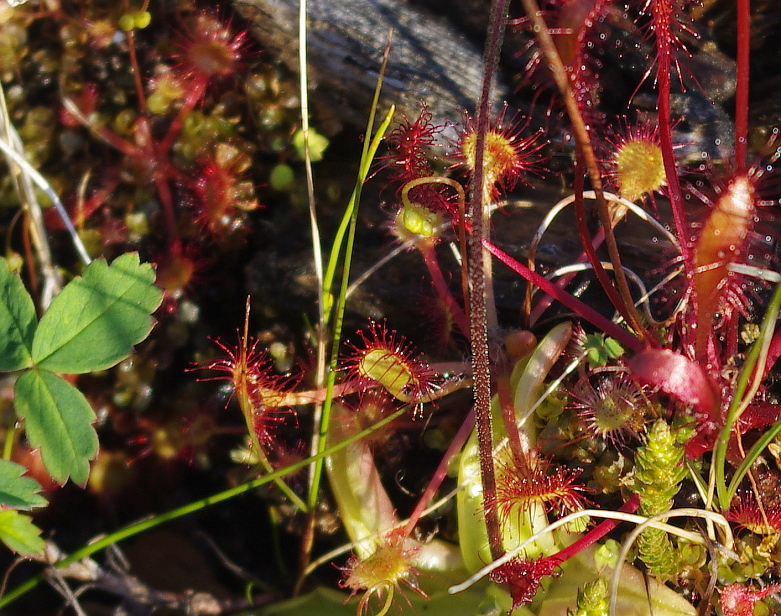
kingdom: Plantae
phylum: Tracheophyta
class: Magnoliopsida
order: Caryophyllales
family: Droseraceae
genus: Drosera
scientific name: Drosera rotundifolia
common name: Round-leaved sundew
